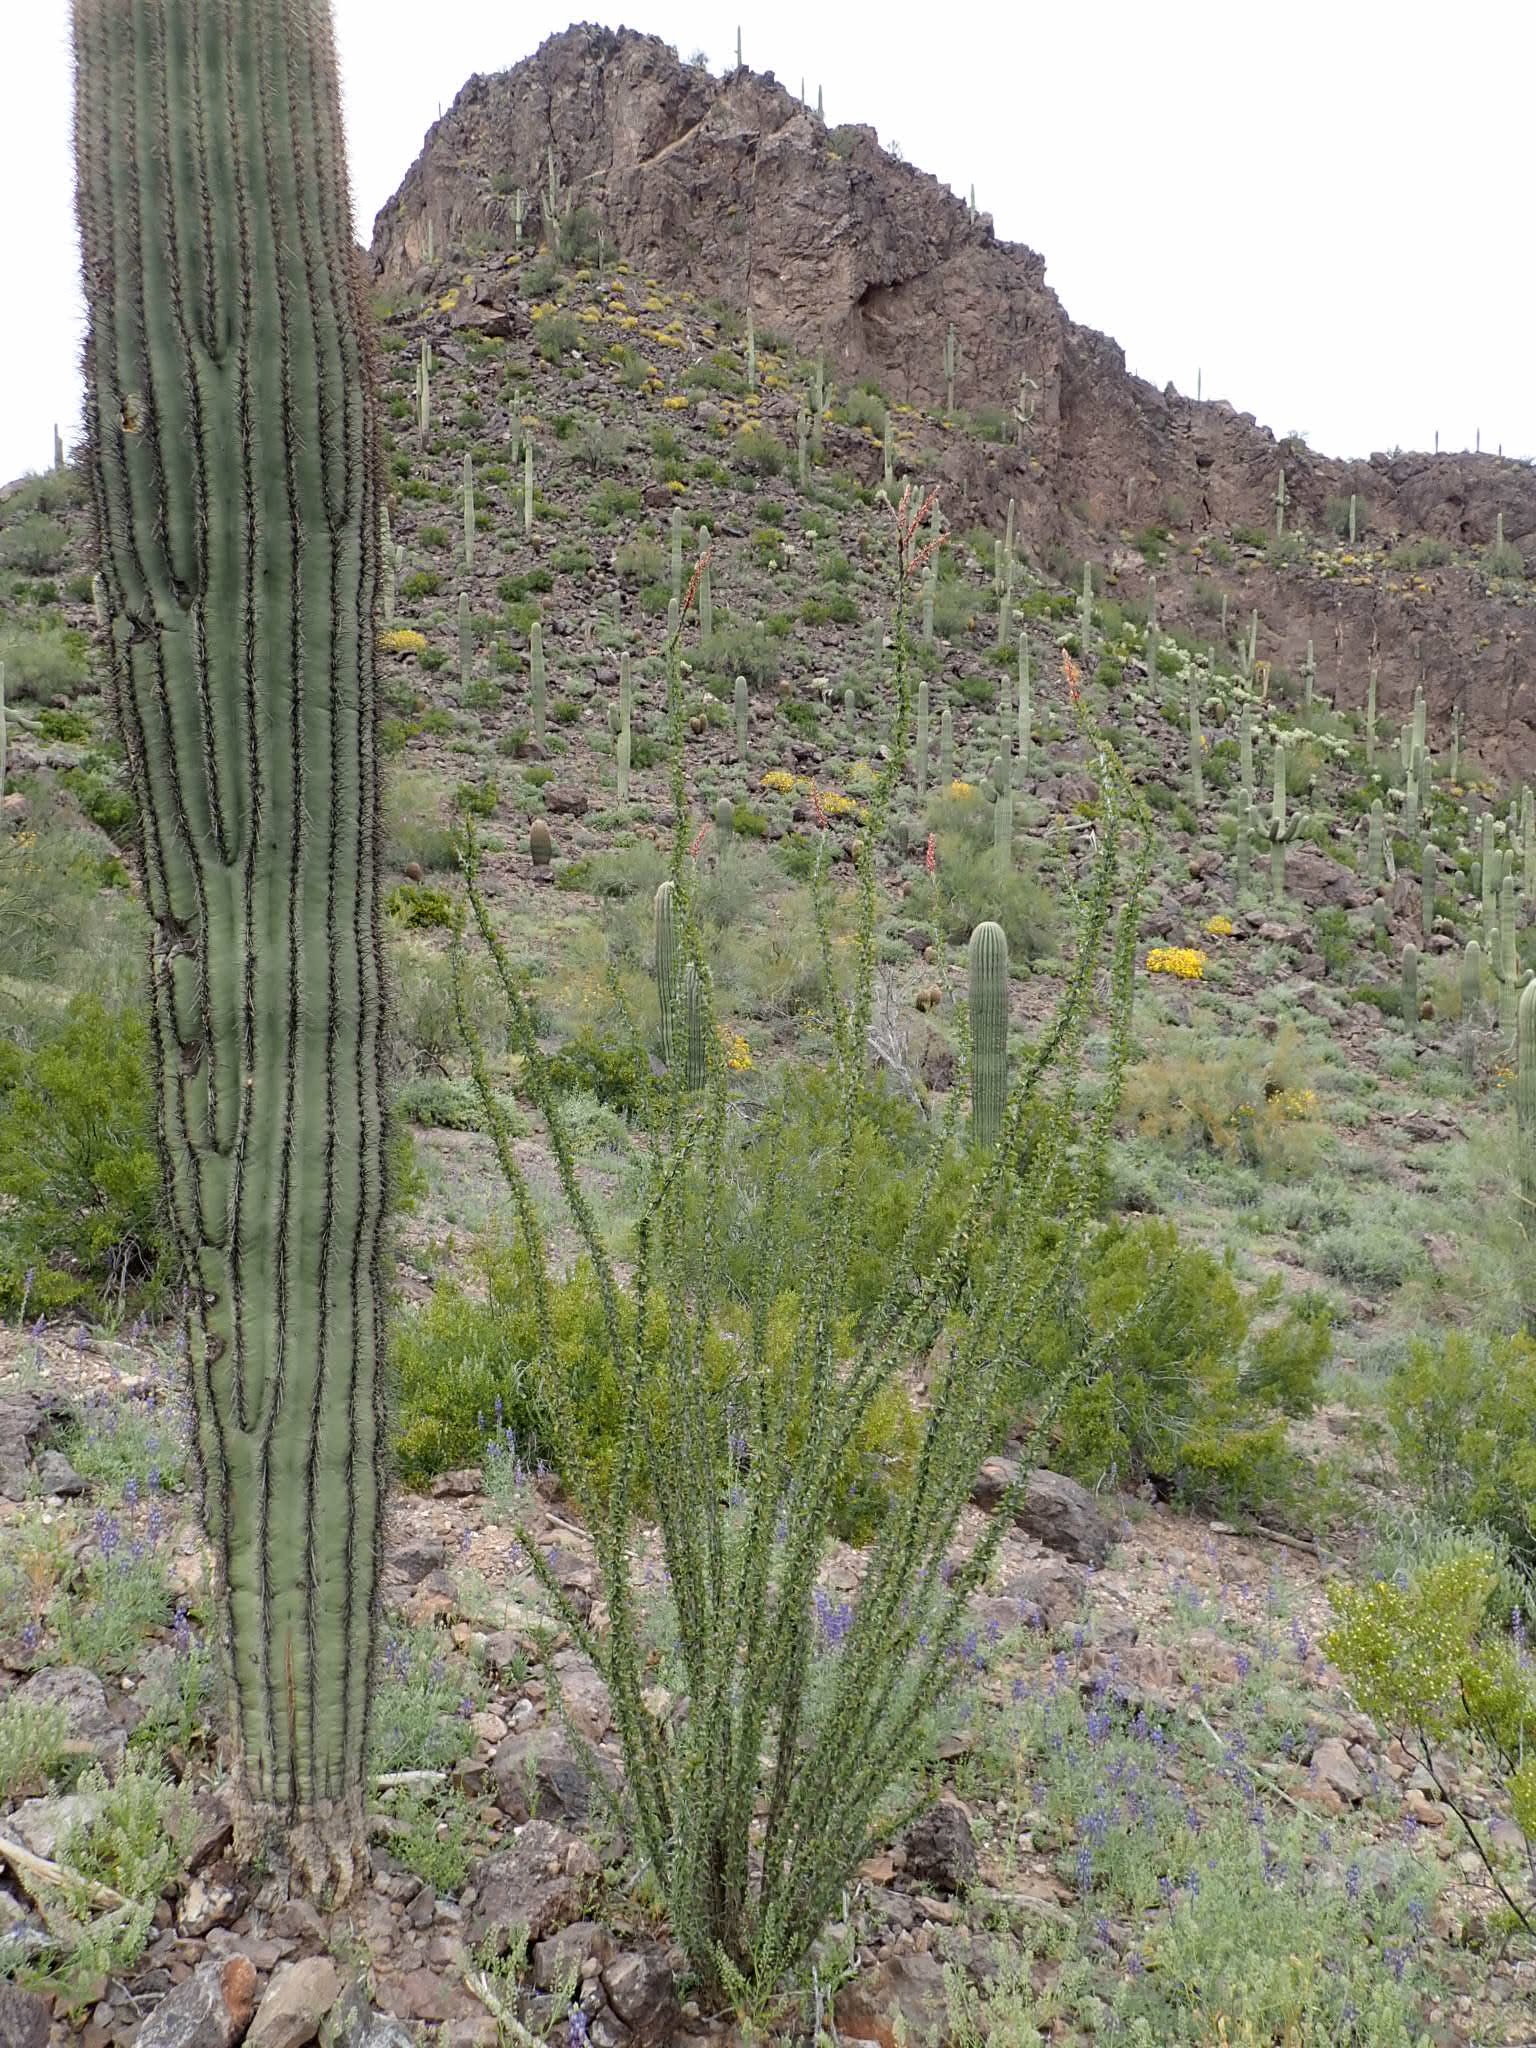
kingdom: Plantae
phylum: Tracheophyta
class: Magnoliopsida
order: Caryophyllales
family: Cactaceae
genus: Carnegiea
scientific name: Carnegiea gigantea
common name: Saguaro
